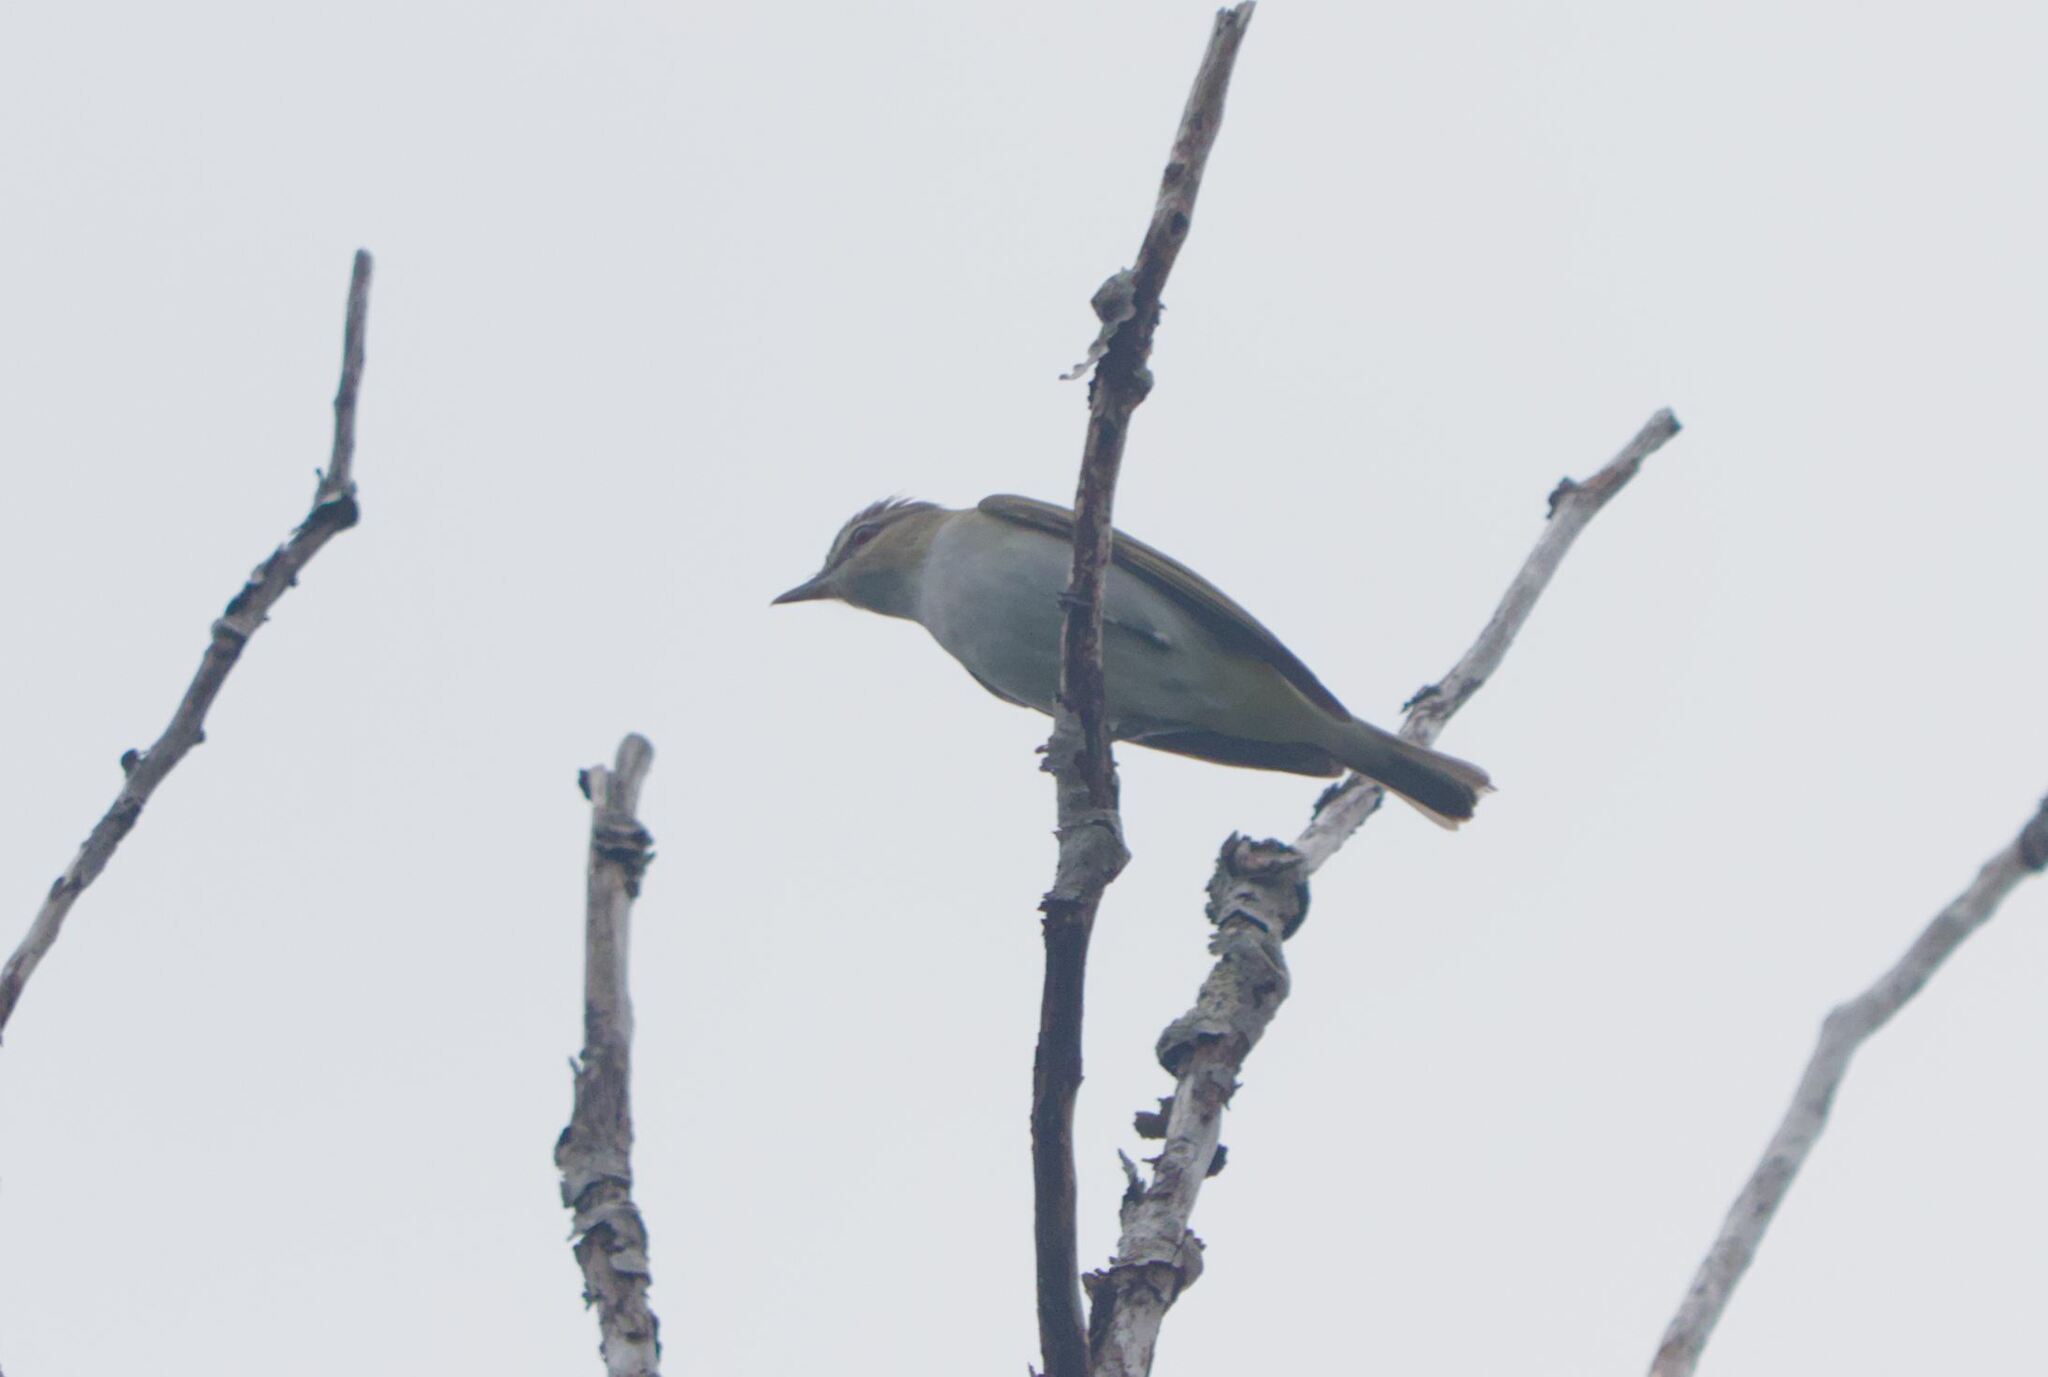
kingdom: Animalia
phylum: Chordata
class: Aves
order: Passeriformes
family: Vireonidae
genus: Vireo
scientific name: Vireo olivaceus
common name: Red-eyed vireo
